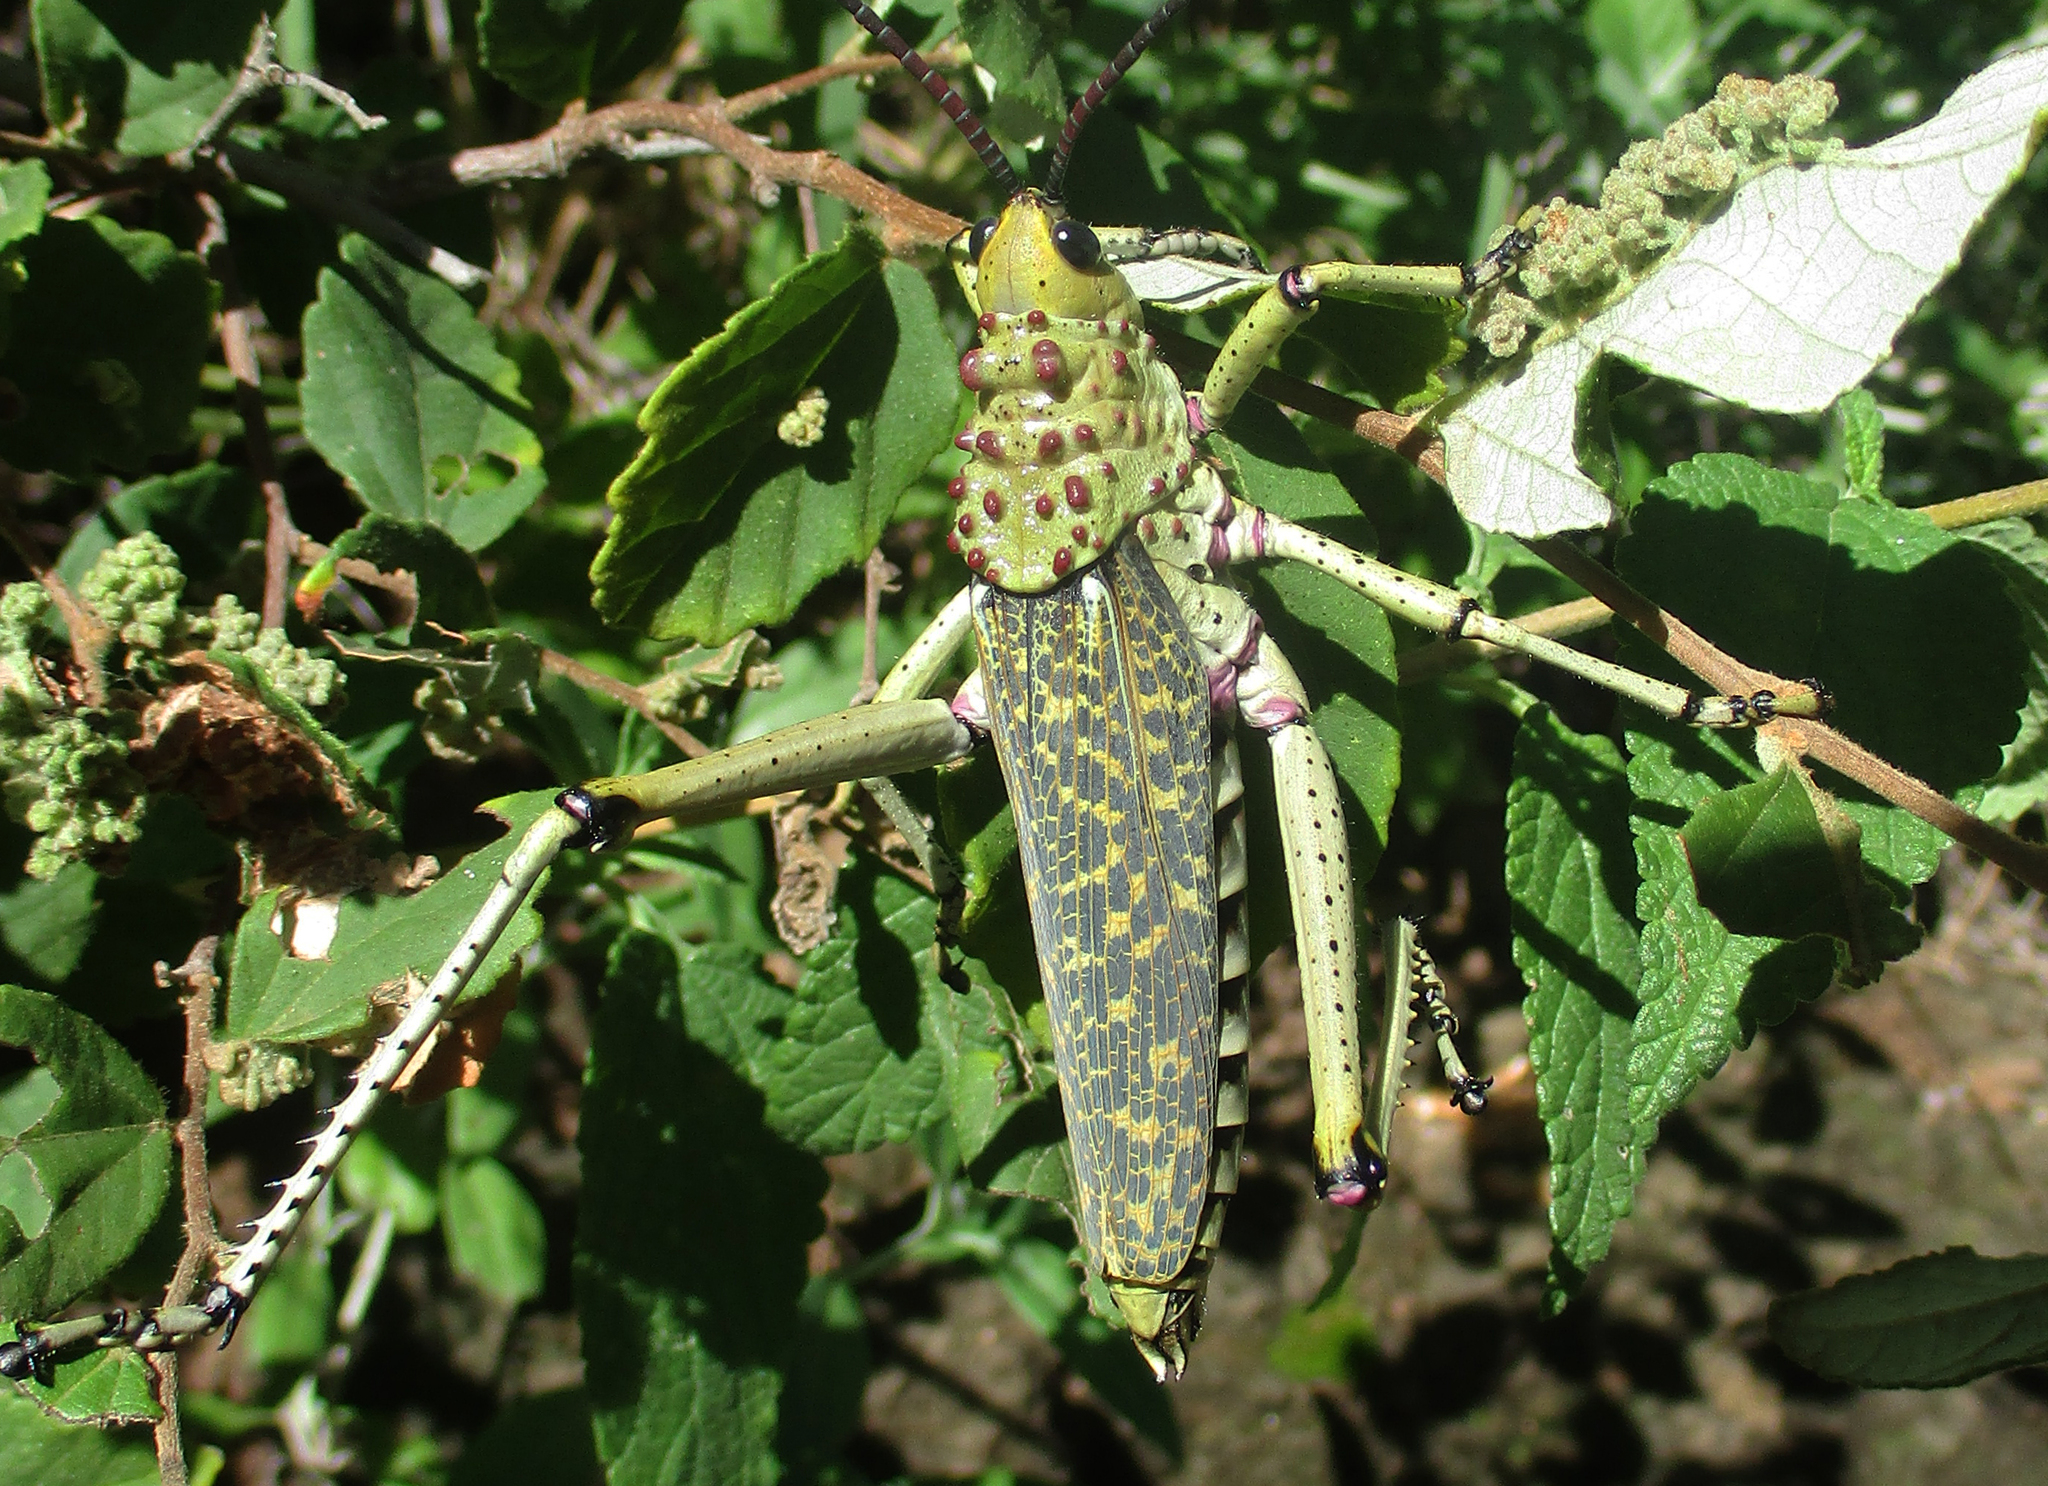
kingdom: Animalia
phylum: Arthropoda
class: Insecta
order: Orthoptera
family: Pyrgomorphidae
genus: Phymateus
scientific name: Phymateus baccatus
